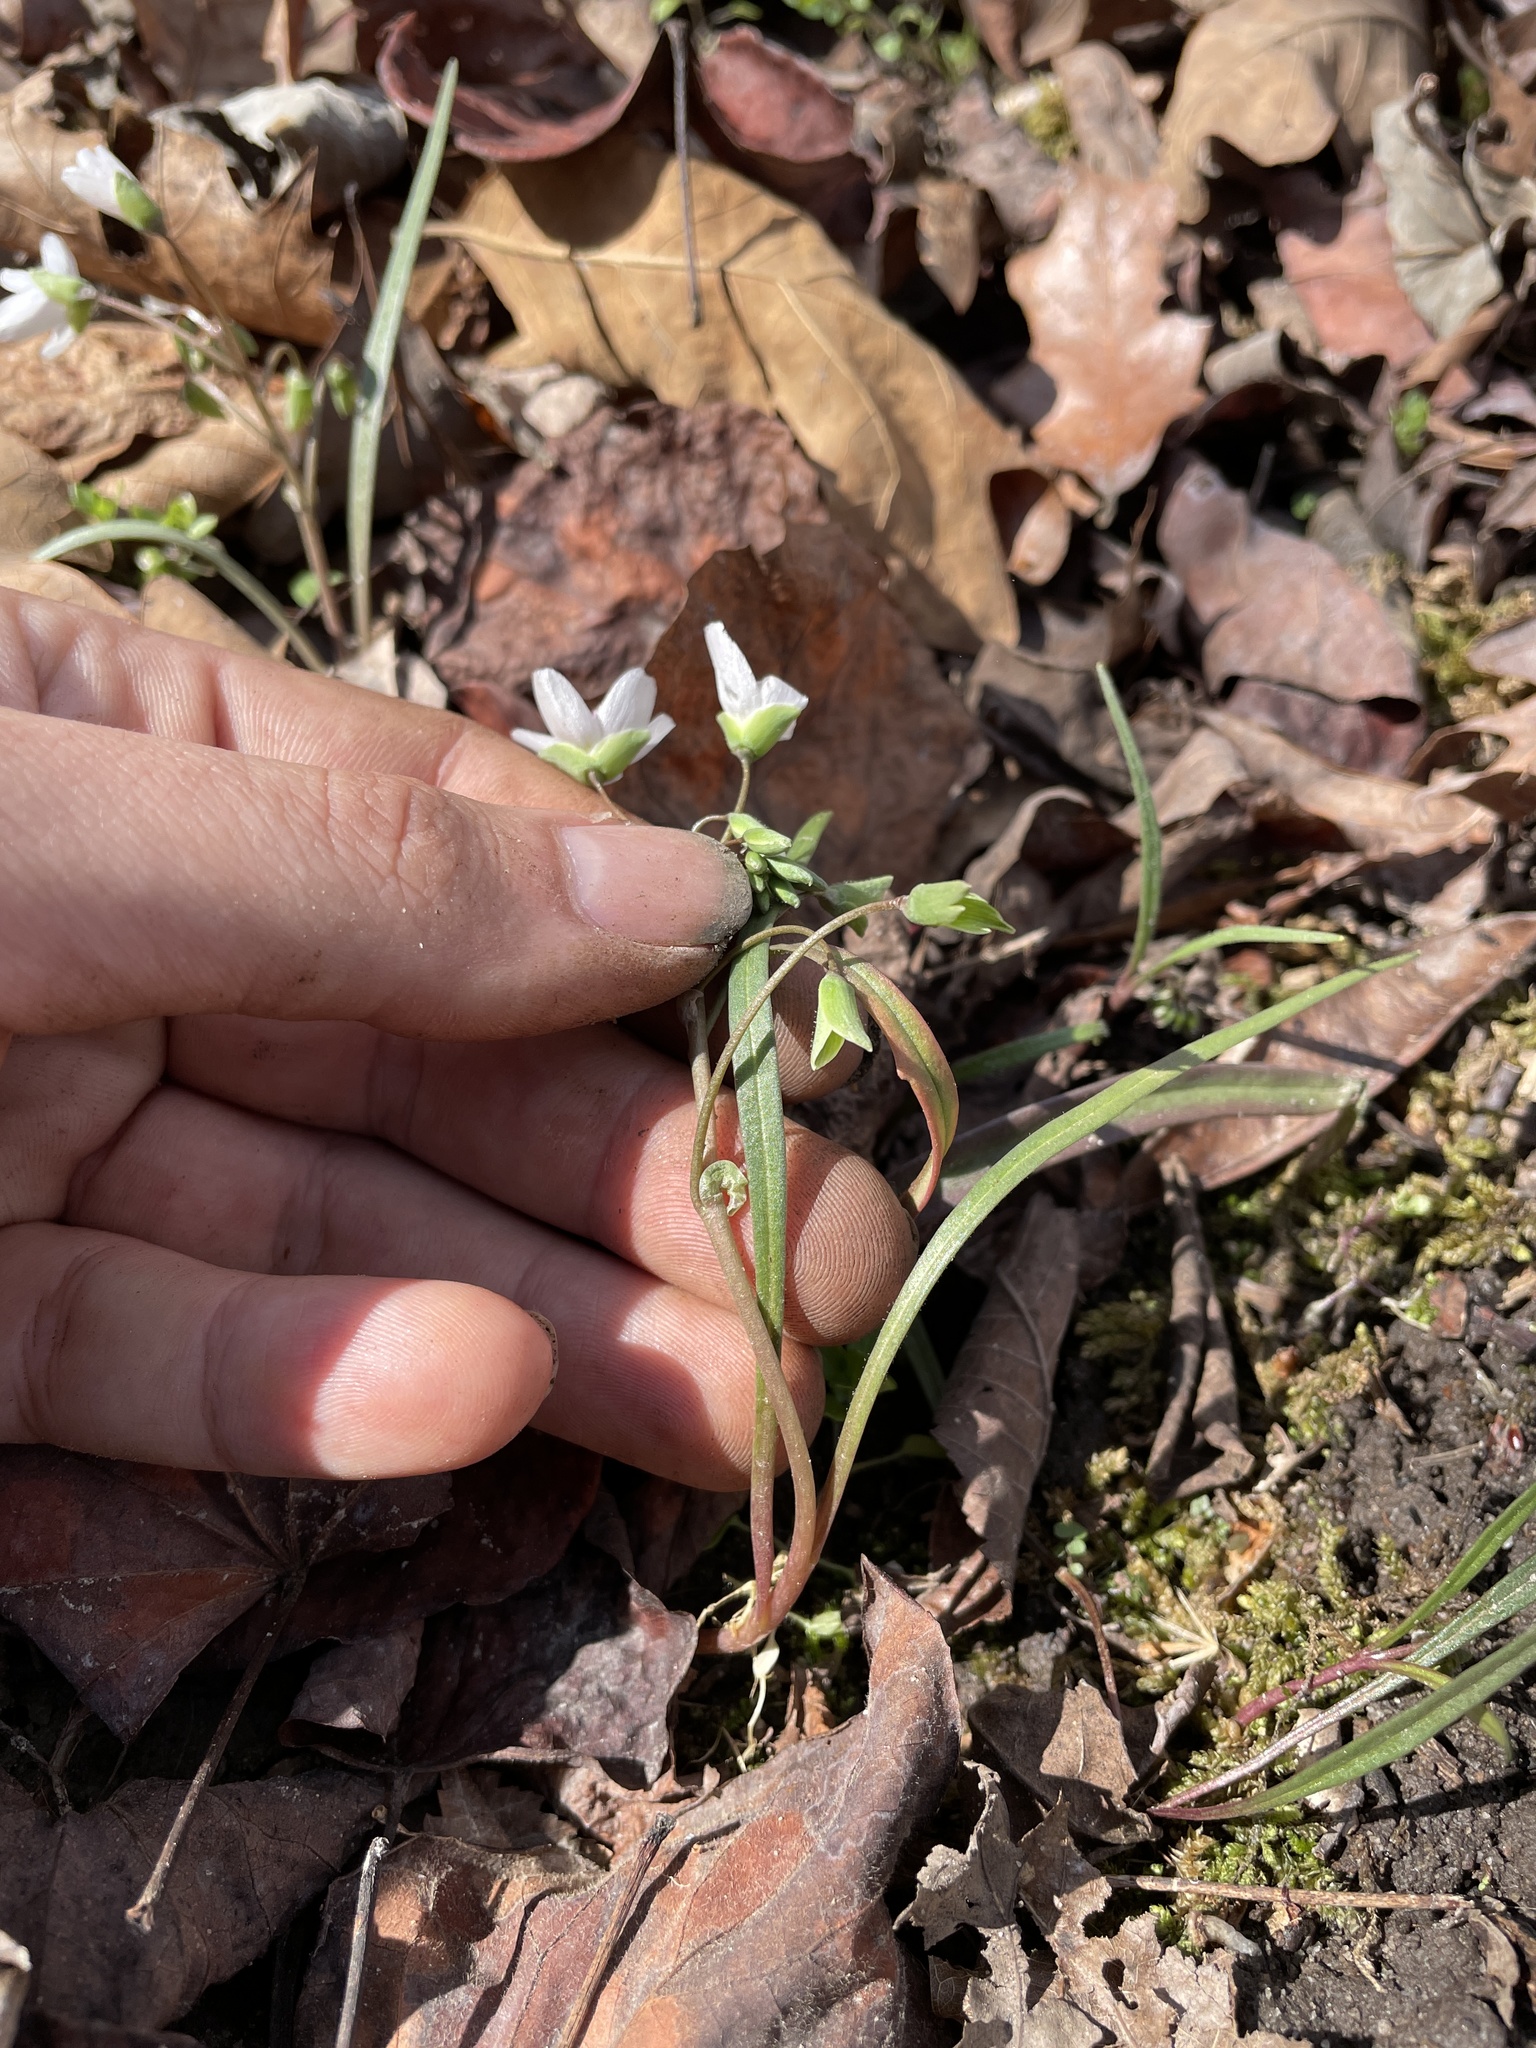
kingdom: Plantae
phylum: Tracheophyta
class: Magnoliopsida
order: Caryophyllales
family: Montiaceae
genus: Claytonia
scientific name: Claytonia virginica
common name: Virginia springbeauty
